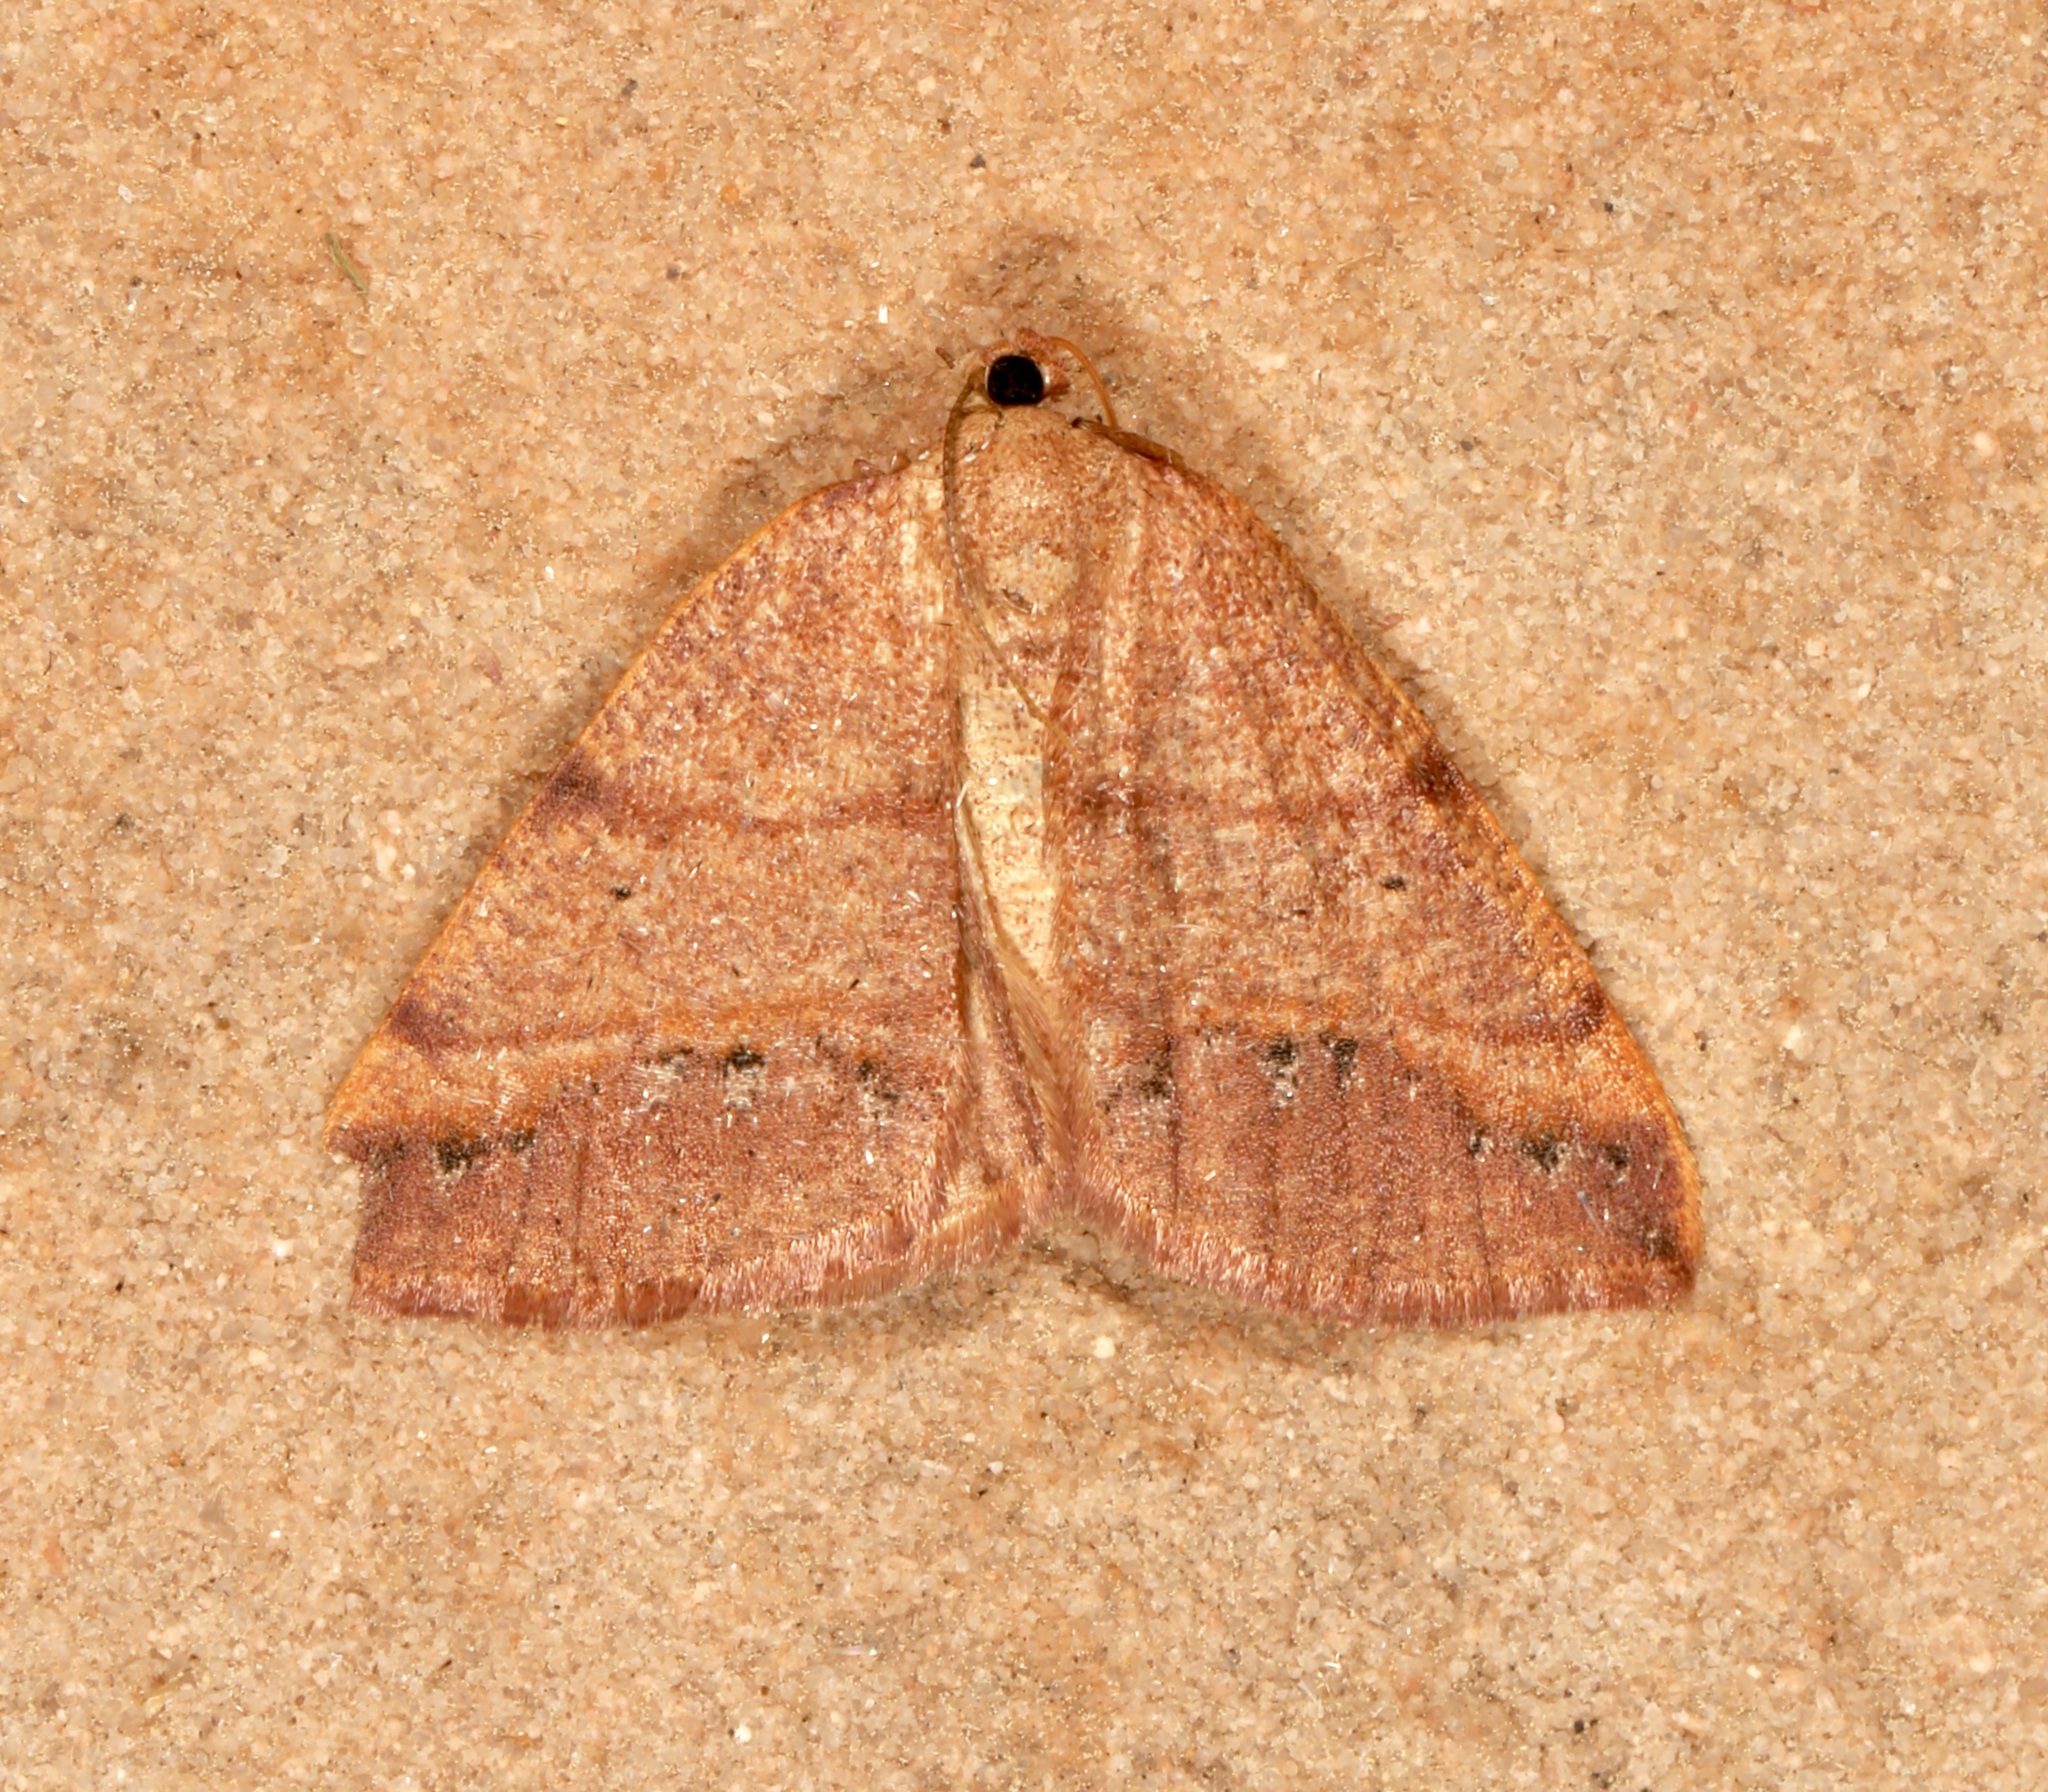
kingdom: Animalia
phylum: Arthropoda
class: Insecta
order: Lepidoptera
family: Geometridae
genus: Drepanulatrix
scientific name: Drepanulatrix bifilata
